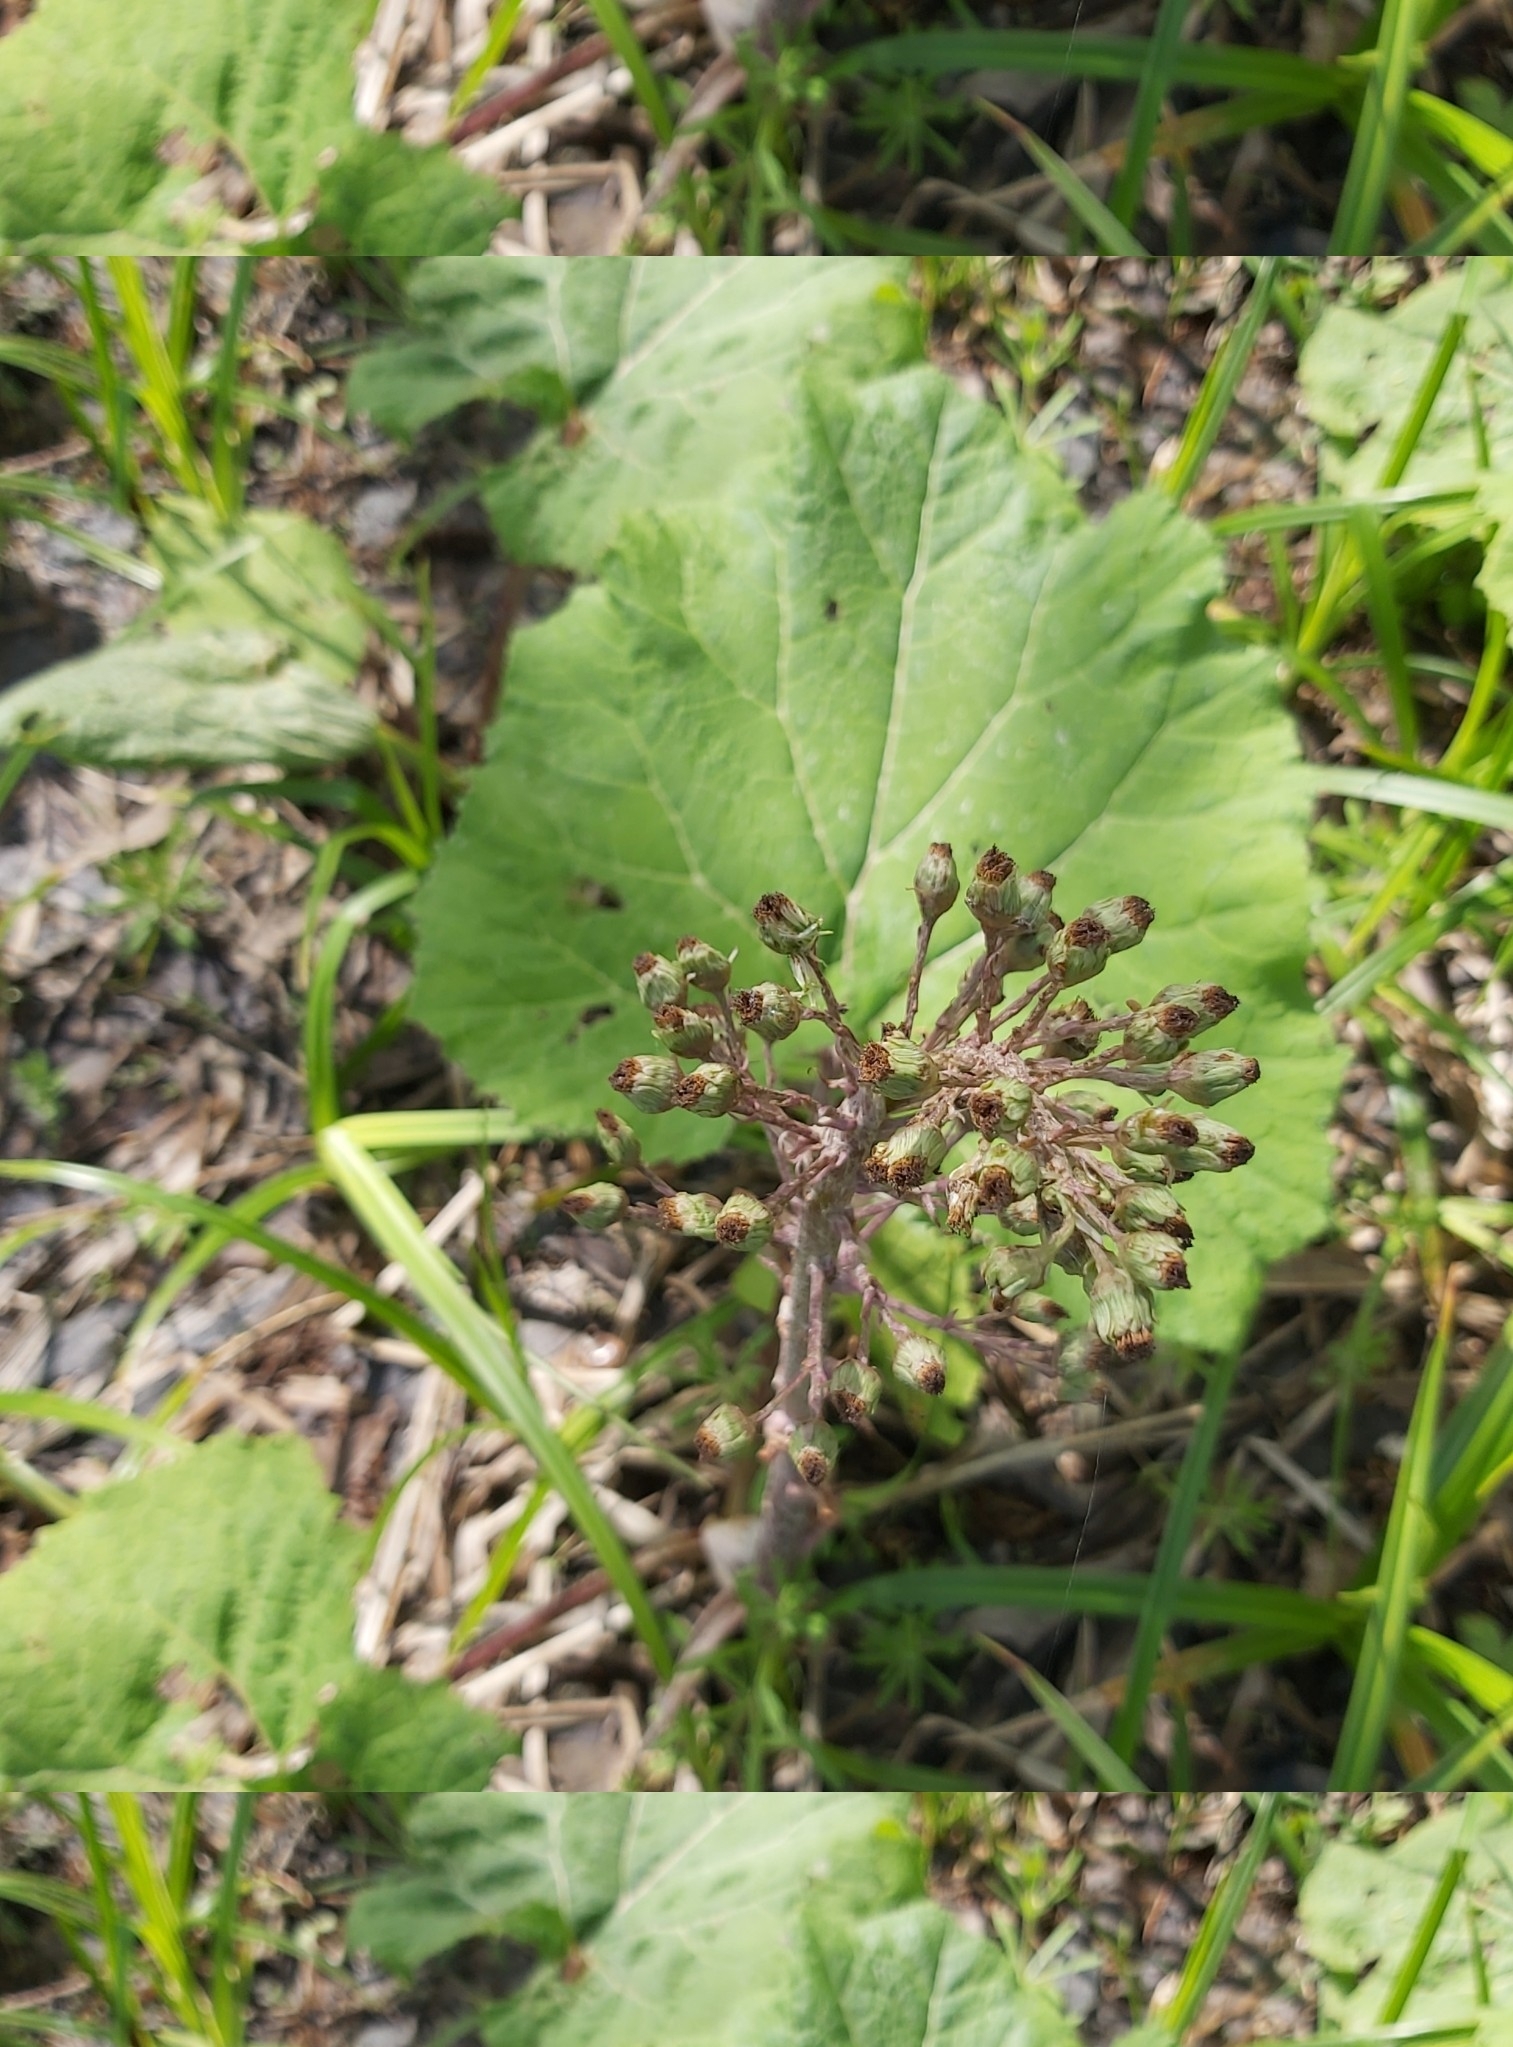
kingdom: Plantae
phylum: Tracheophyta
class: Magnoliopsida
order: Asterales
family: Asteraceae
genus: Petasites
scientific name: Petasites hybridus
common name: Butterbur
